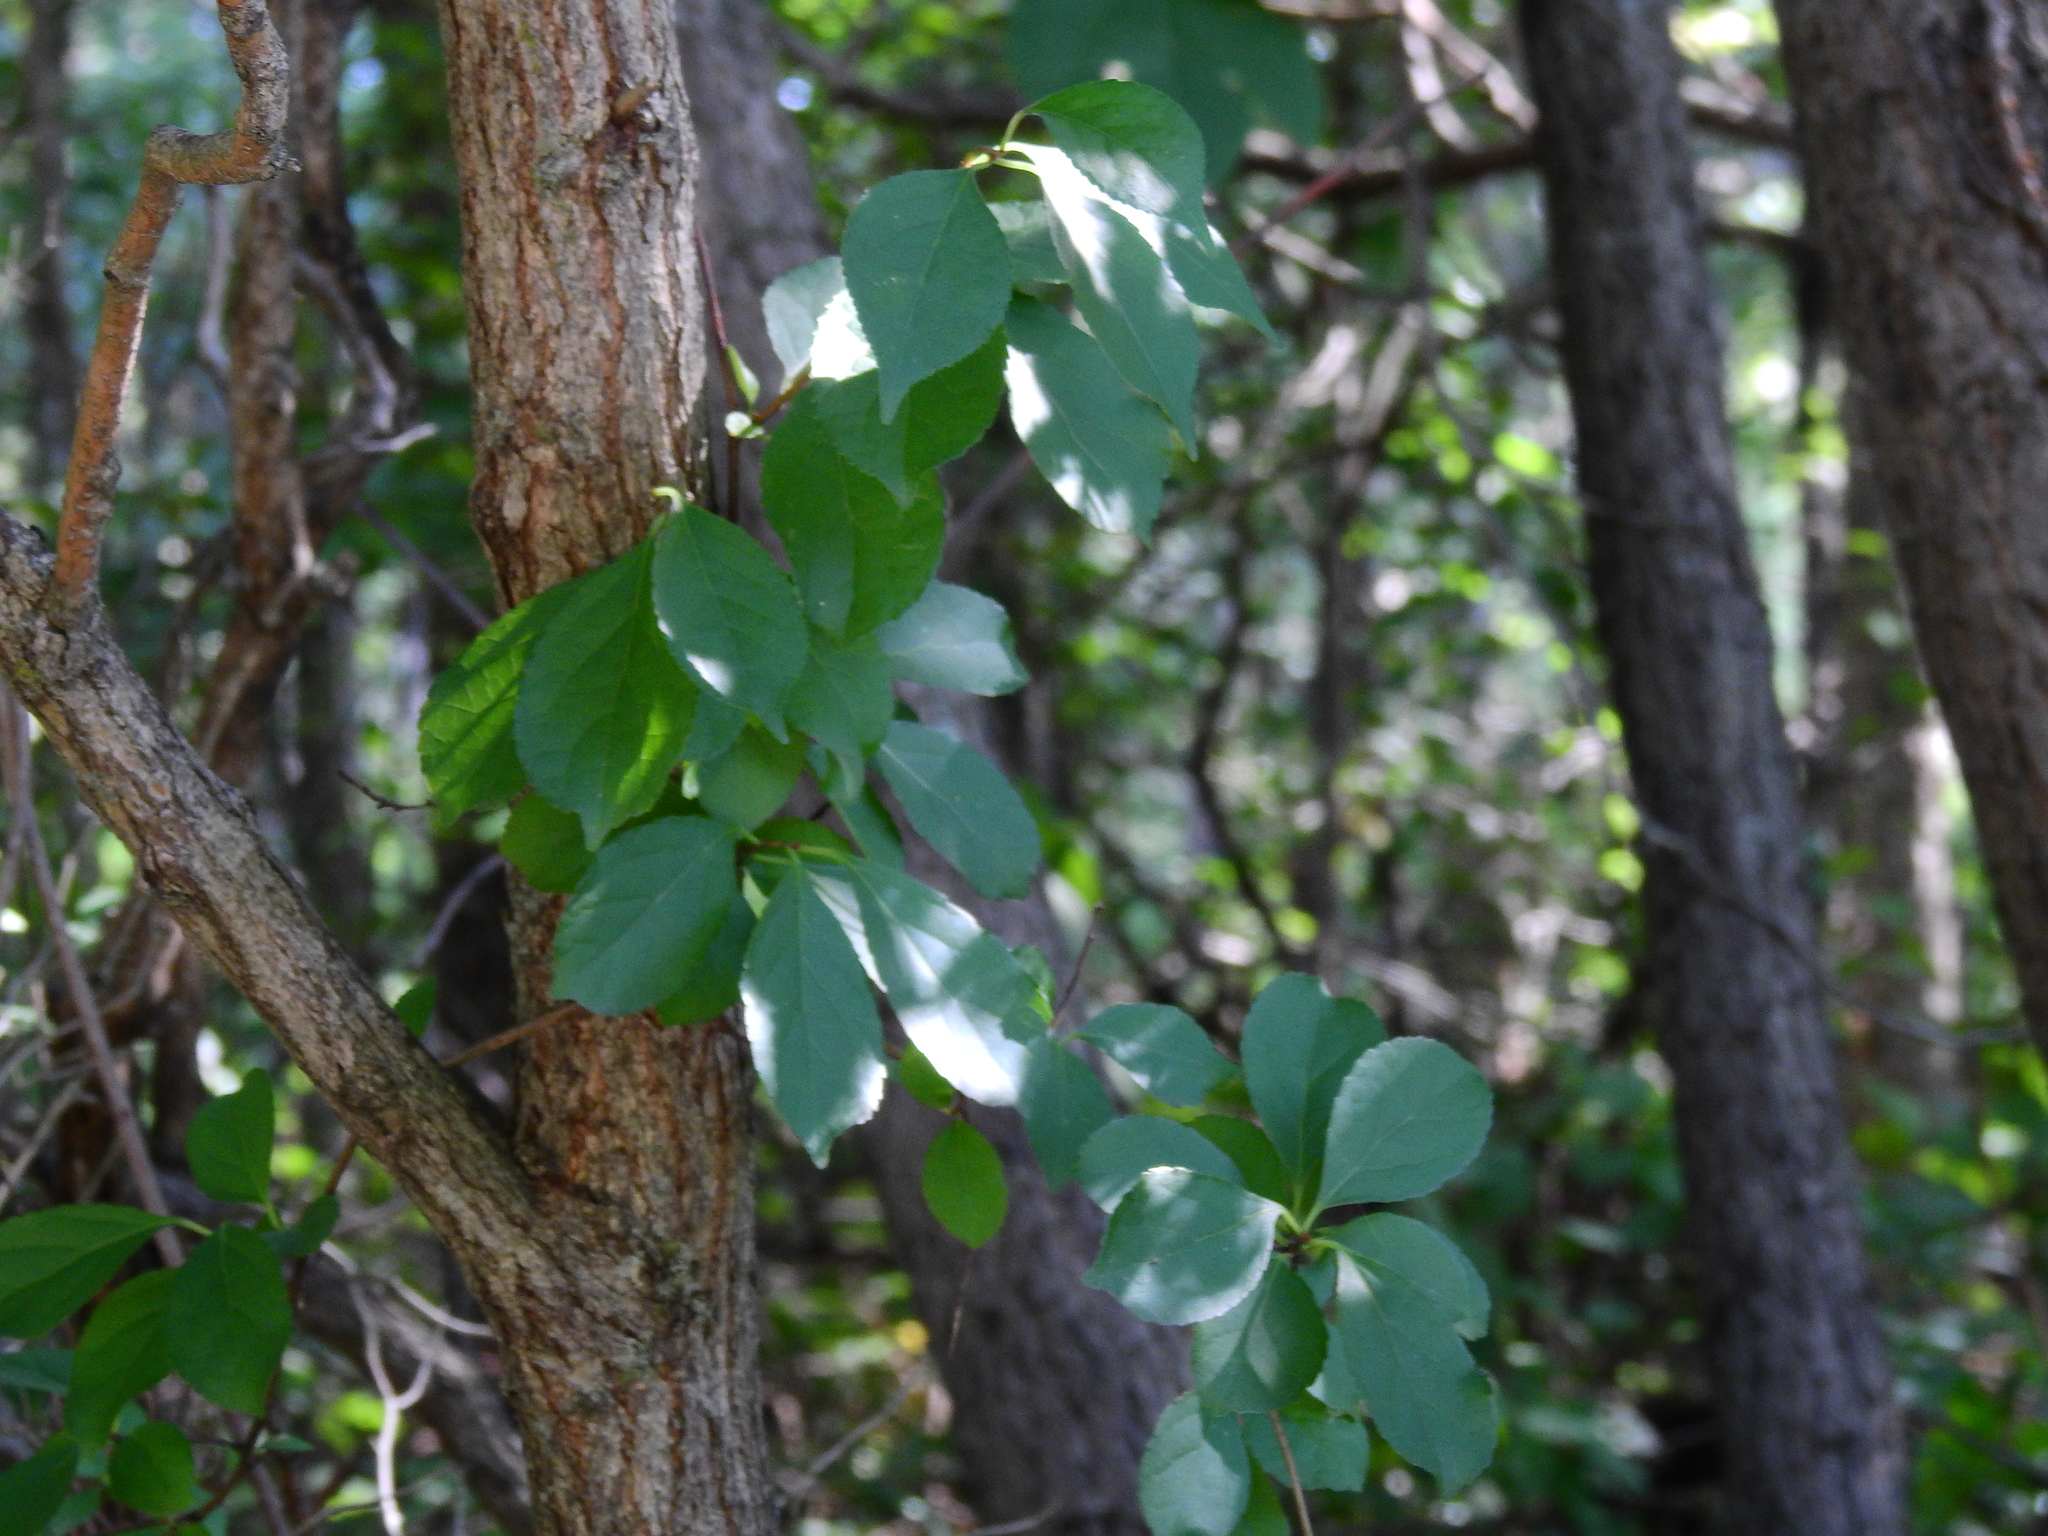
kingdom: Plantae
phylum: Tracheophyta
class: Magnoliopsida
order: Celastrales
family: Celastraceae
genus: Celastrus
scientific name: Celastrus orbiculatus
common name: Oriental bittersweet
